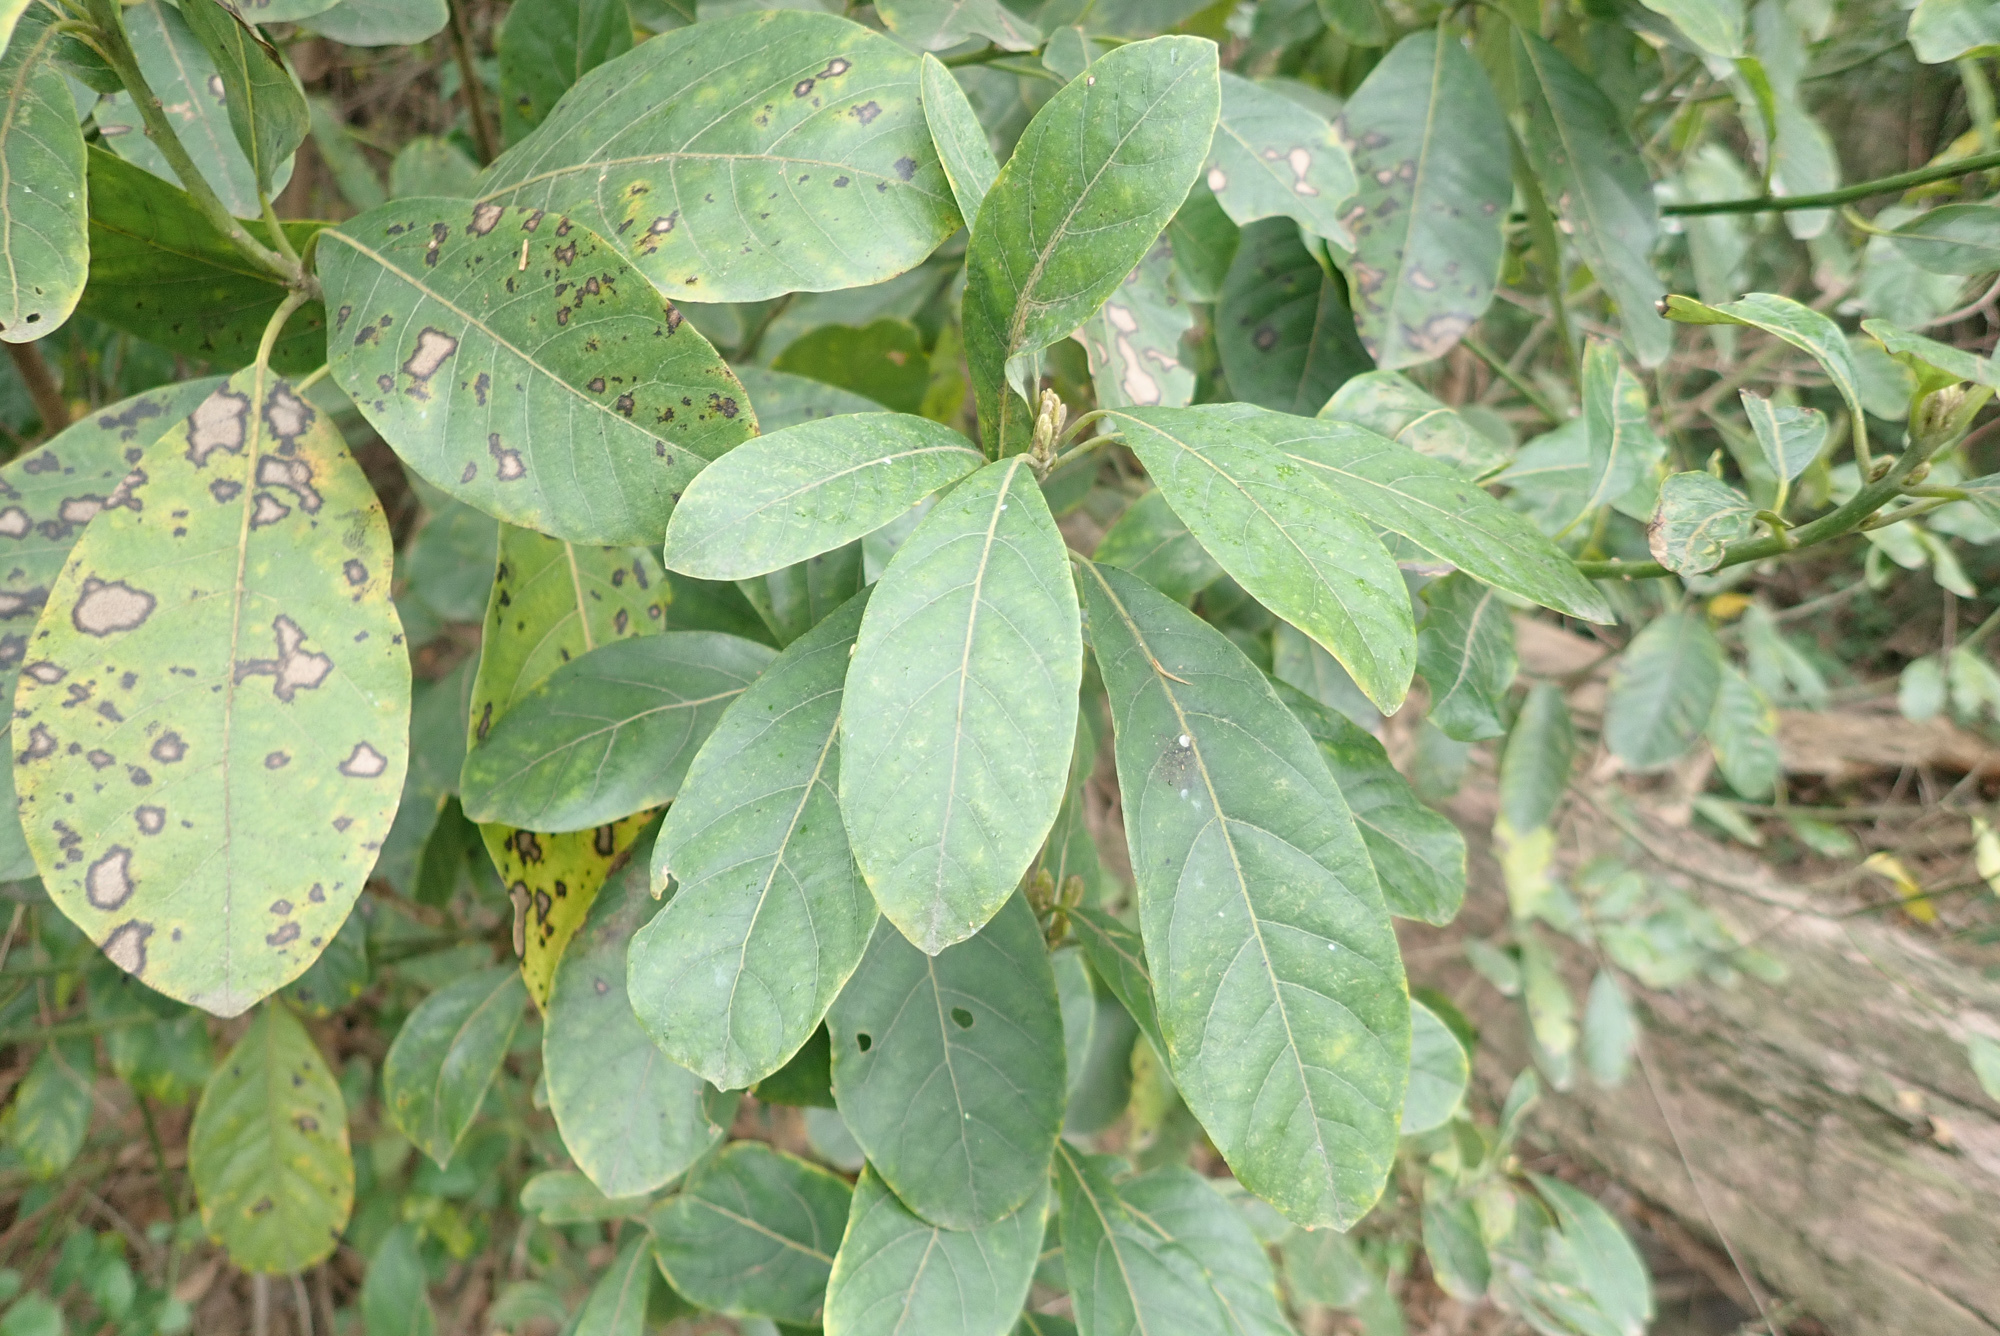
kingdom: Plantae
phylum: Tracheophyta
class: Magnoliopsida
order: Laurales
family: Lauraceae
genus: Litsea
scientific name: Litsea glutinosa
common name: Indian-laurel
